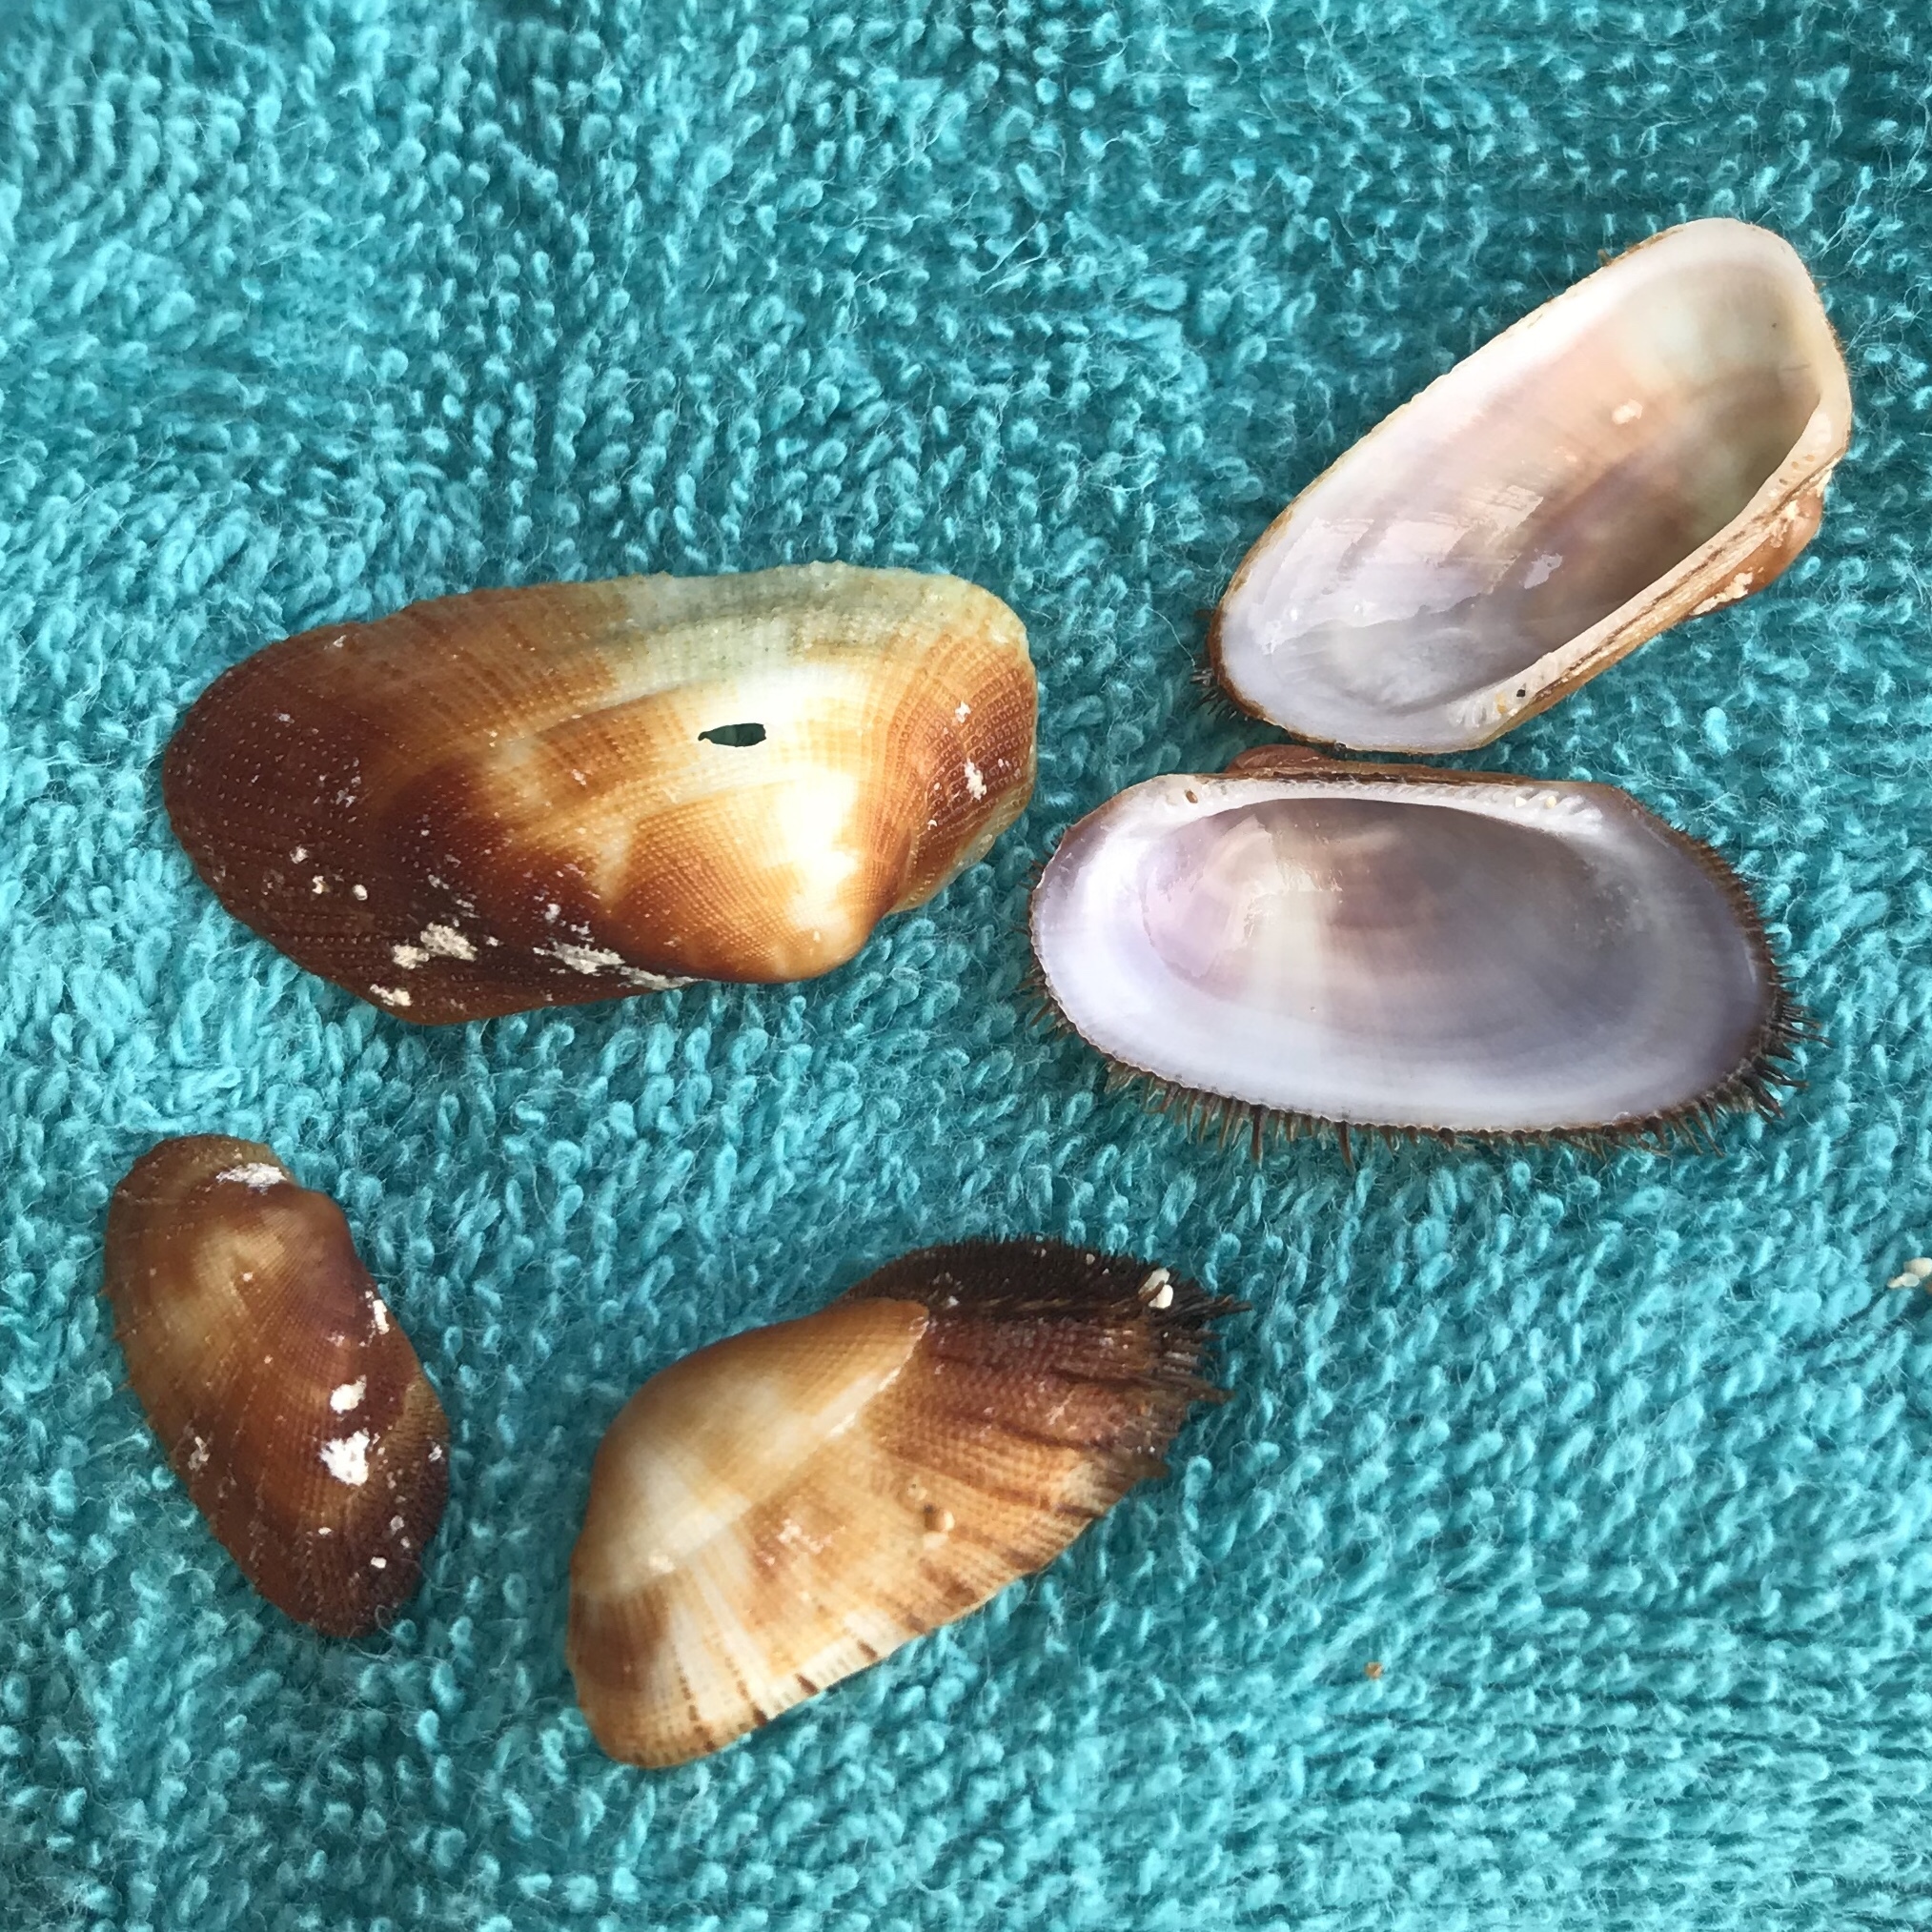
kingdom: Animalia
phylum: Mollusca
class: Bivalvia
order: Arcida
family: Arcidae
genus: Barbatia
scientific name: Barbatia barbata
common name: Bearded ark
